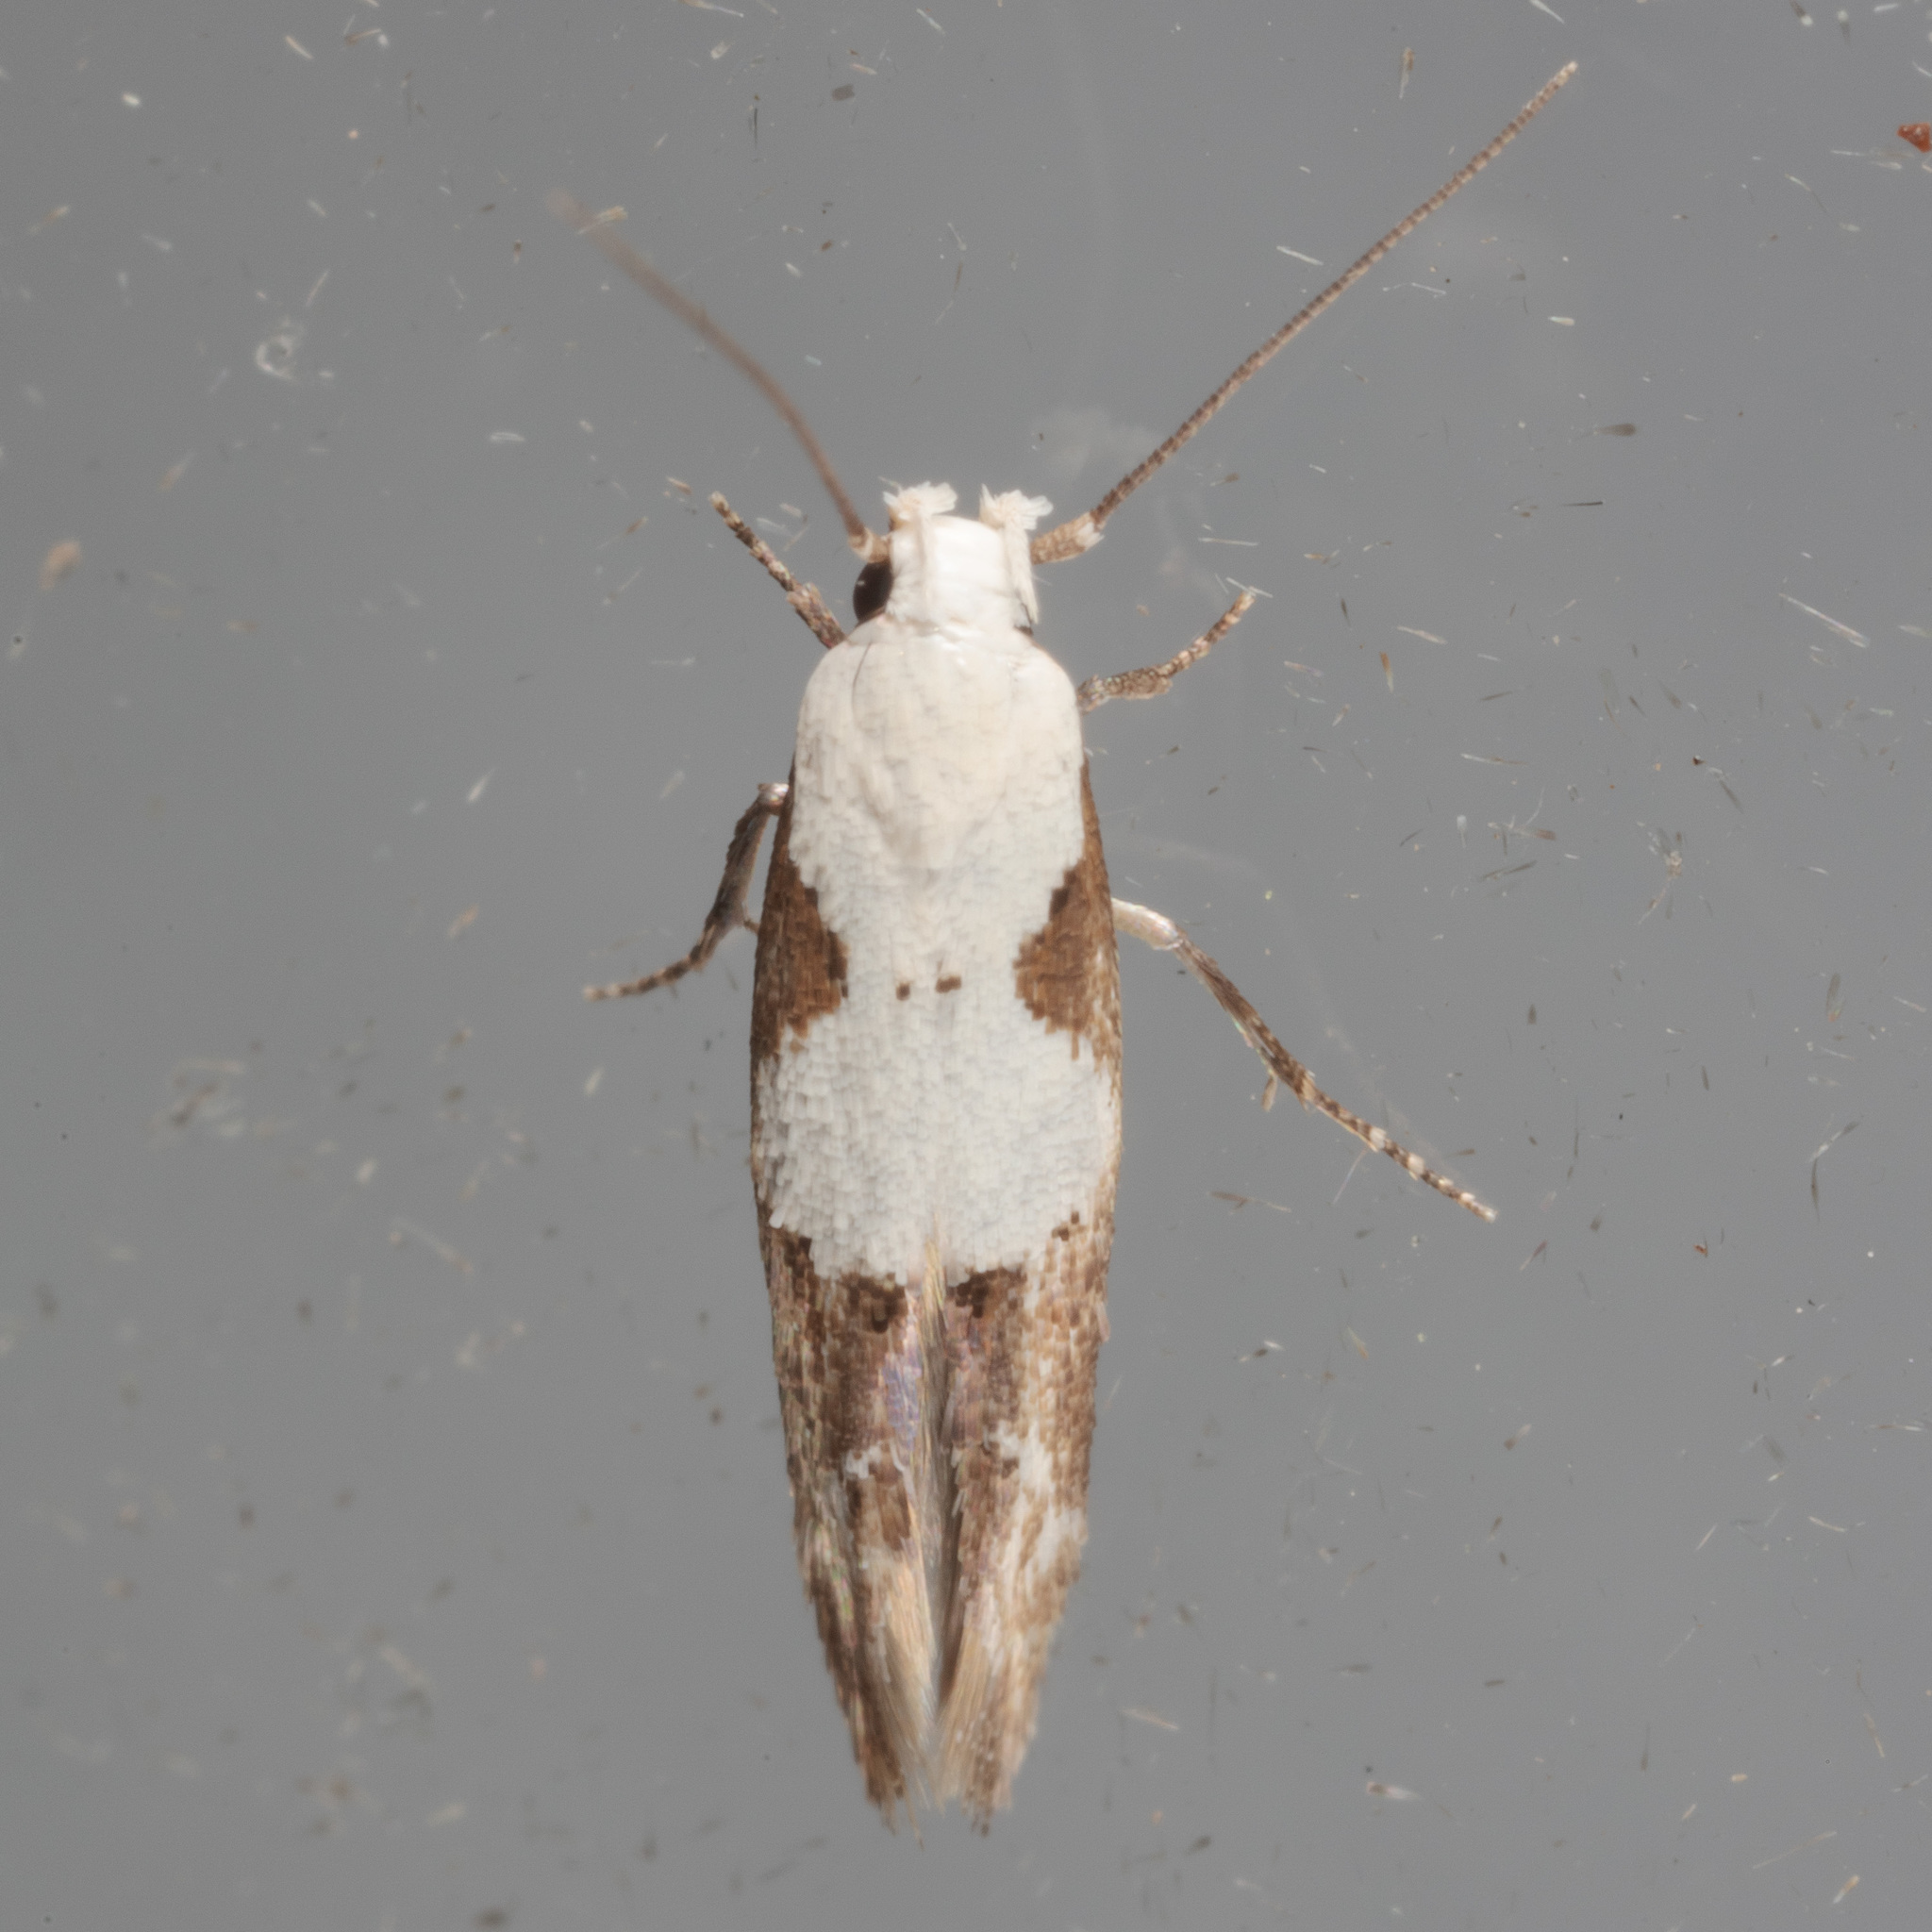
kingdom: Animalia
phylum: Arthropoda
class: Insecta
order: Lepidoptera
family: Momphidae
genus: Mompha
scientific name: Mompha circumscriptella
